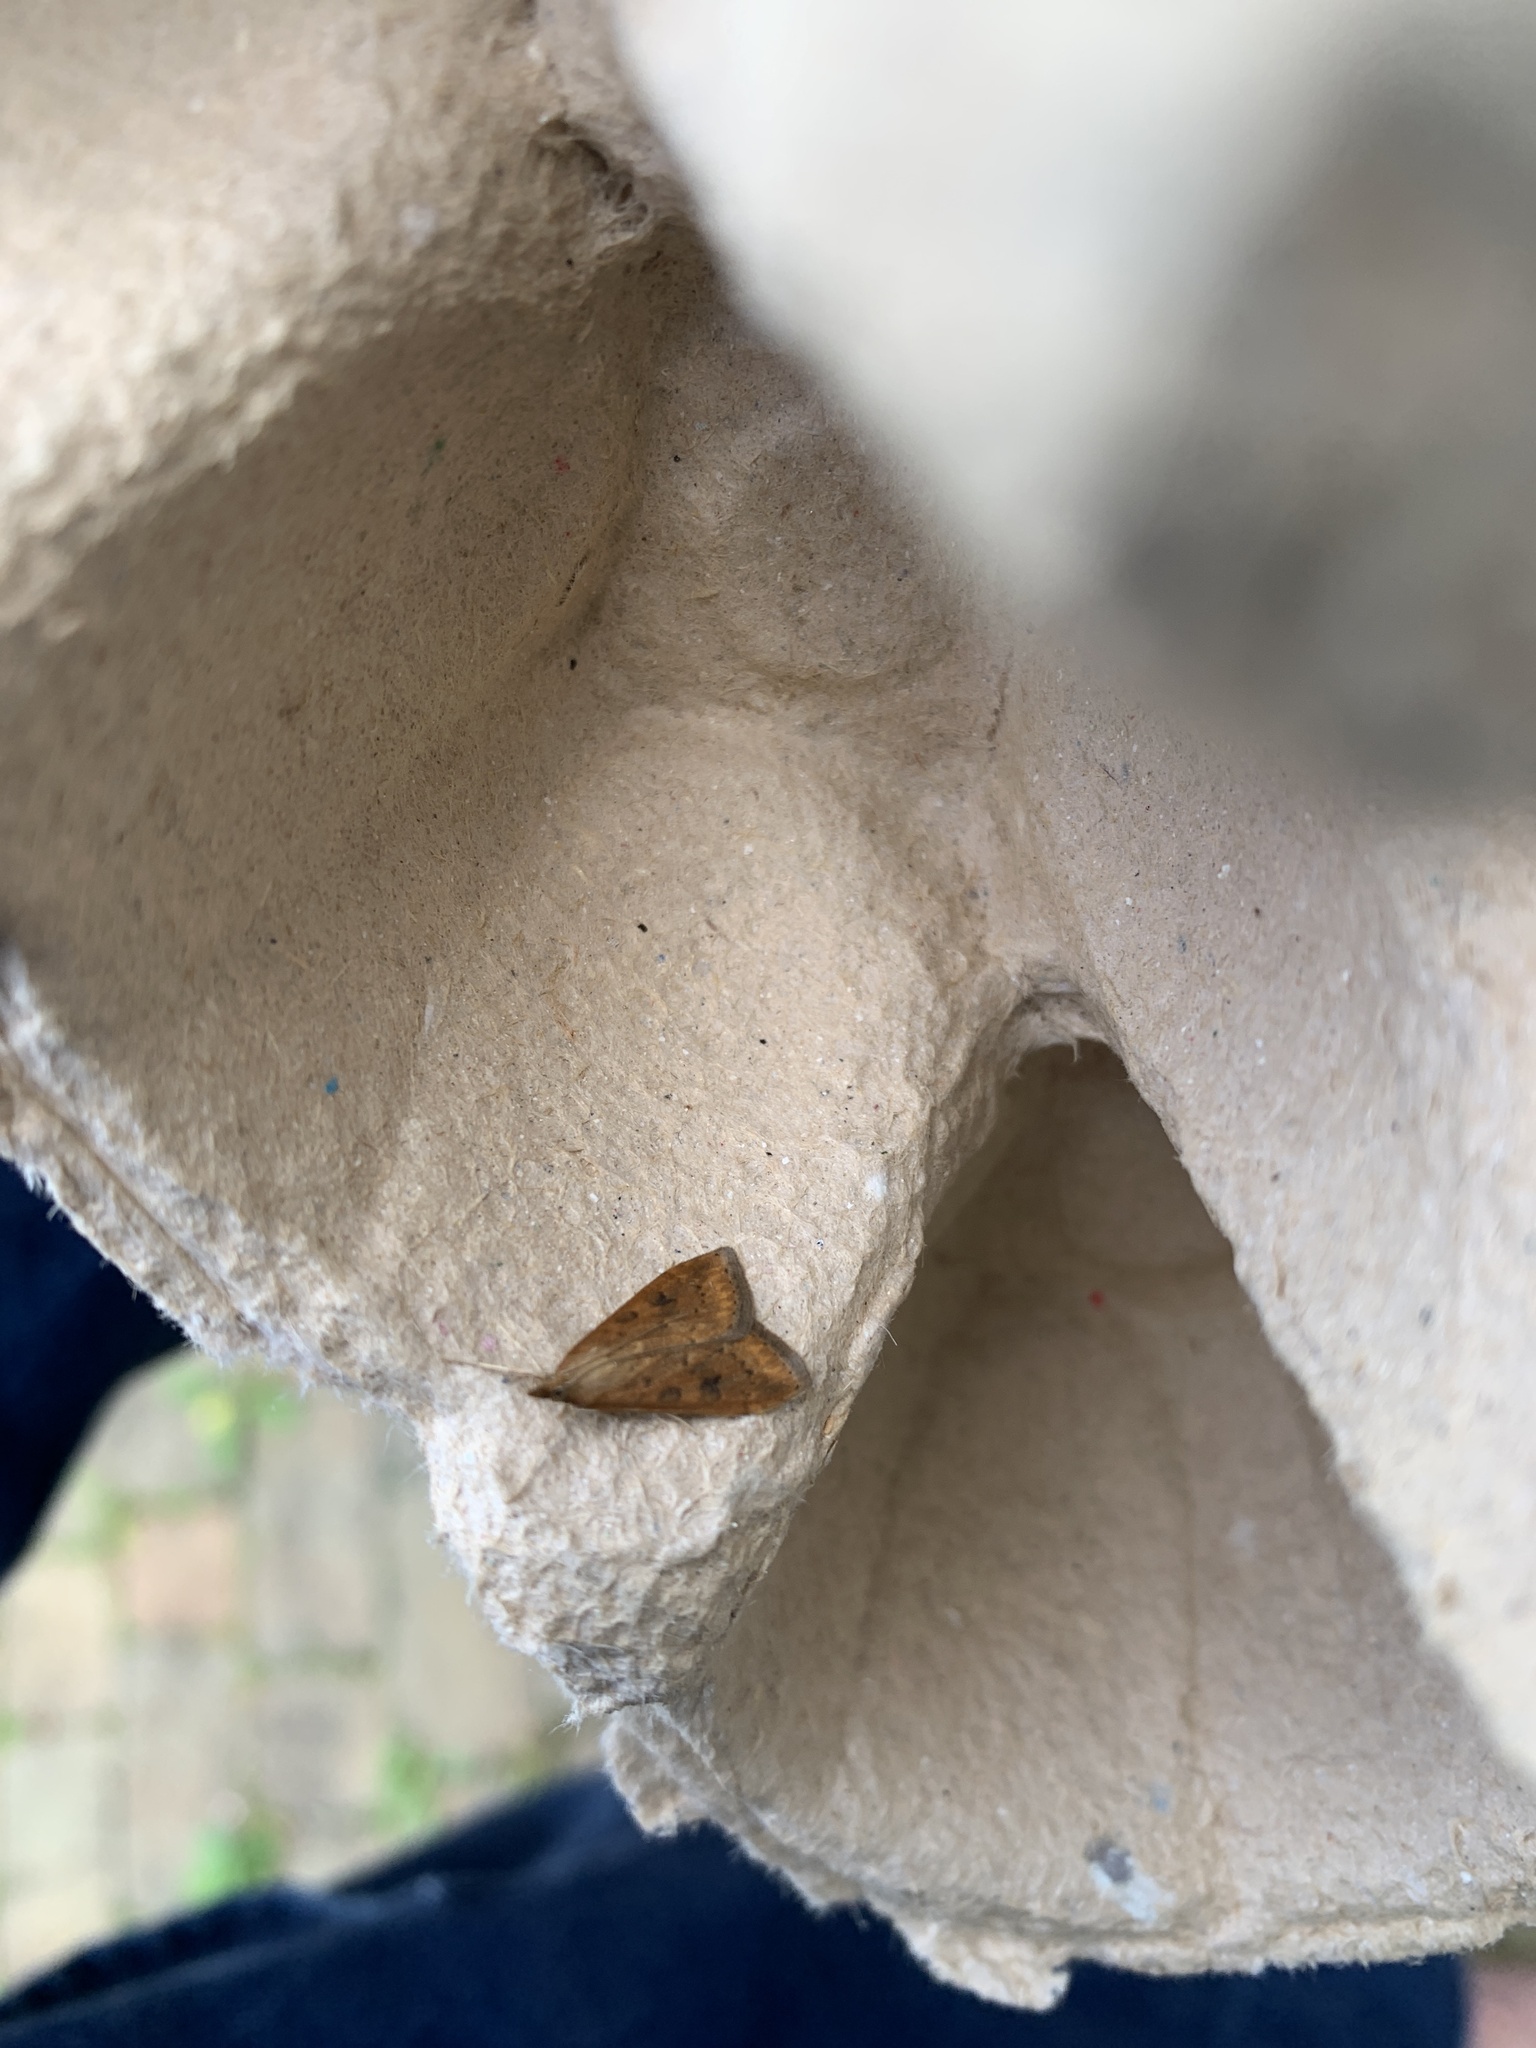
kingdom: Animalia
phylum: Arthropoda
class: Insecta
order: Lepidoptera
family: Crambidae
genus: Udea
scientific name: Udea ferrugalis
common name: Rusty dot
